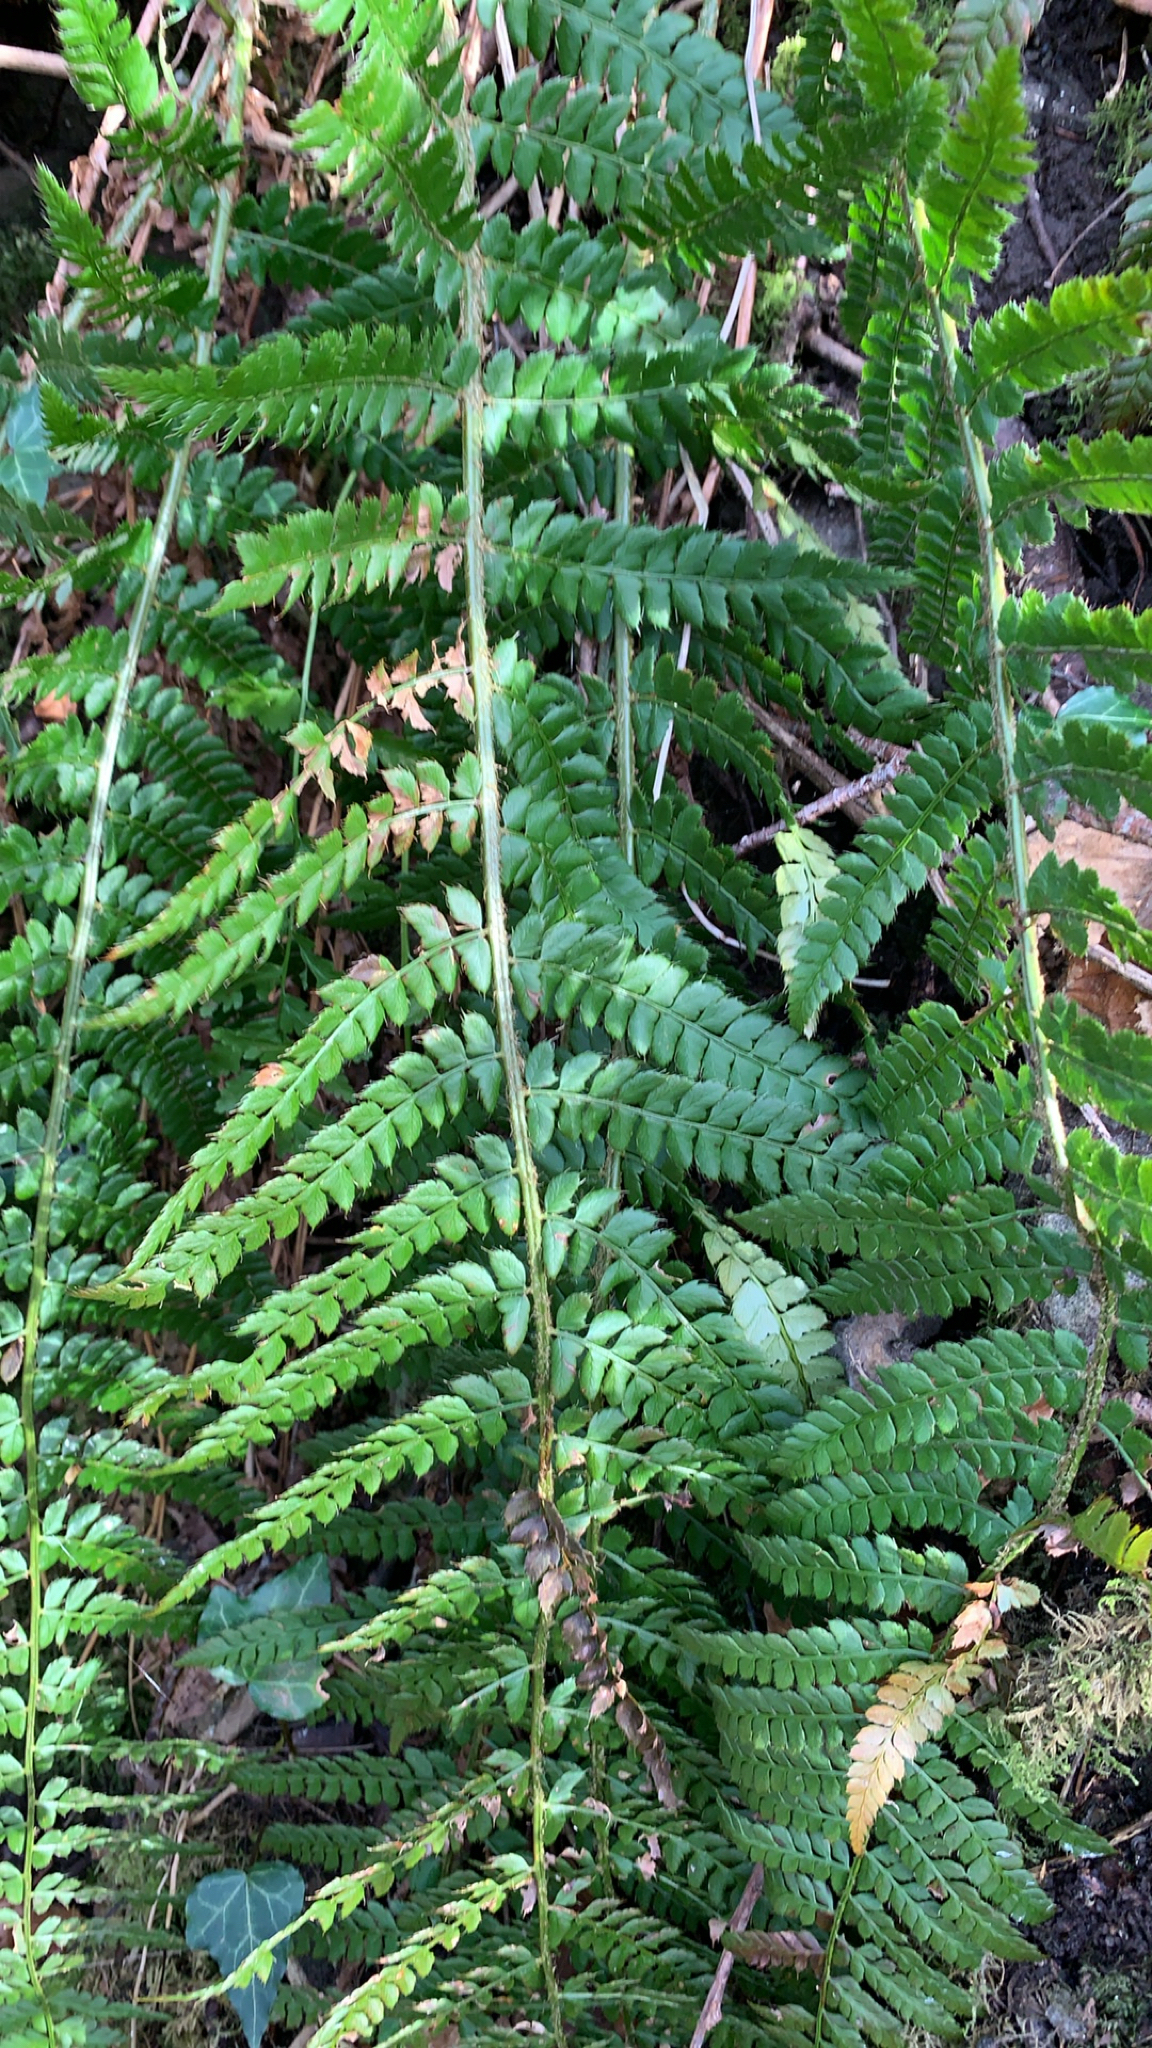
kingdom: Plantae
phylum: Tracheophyta
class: Polypodiopsida
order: Polypodiales
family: Dryopteridaceae
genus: Polystichum
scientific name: Polystichum setiferum
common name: Soft shield-fern
